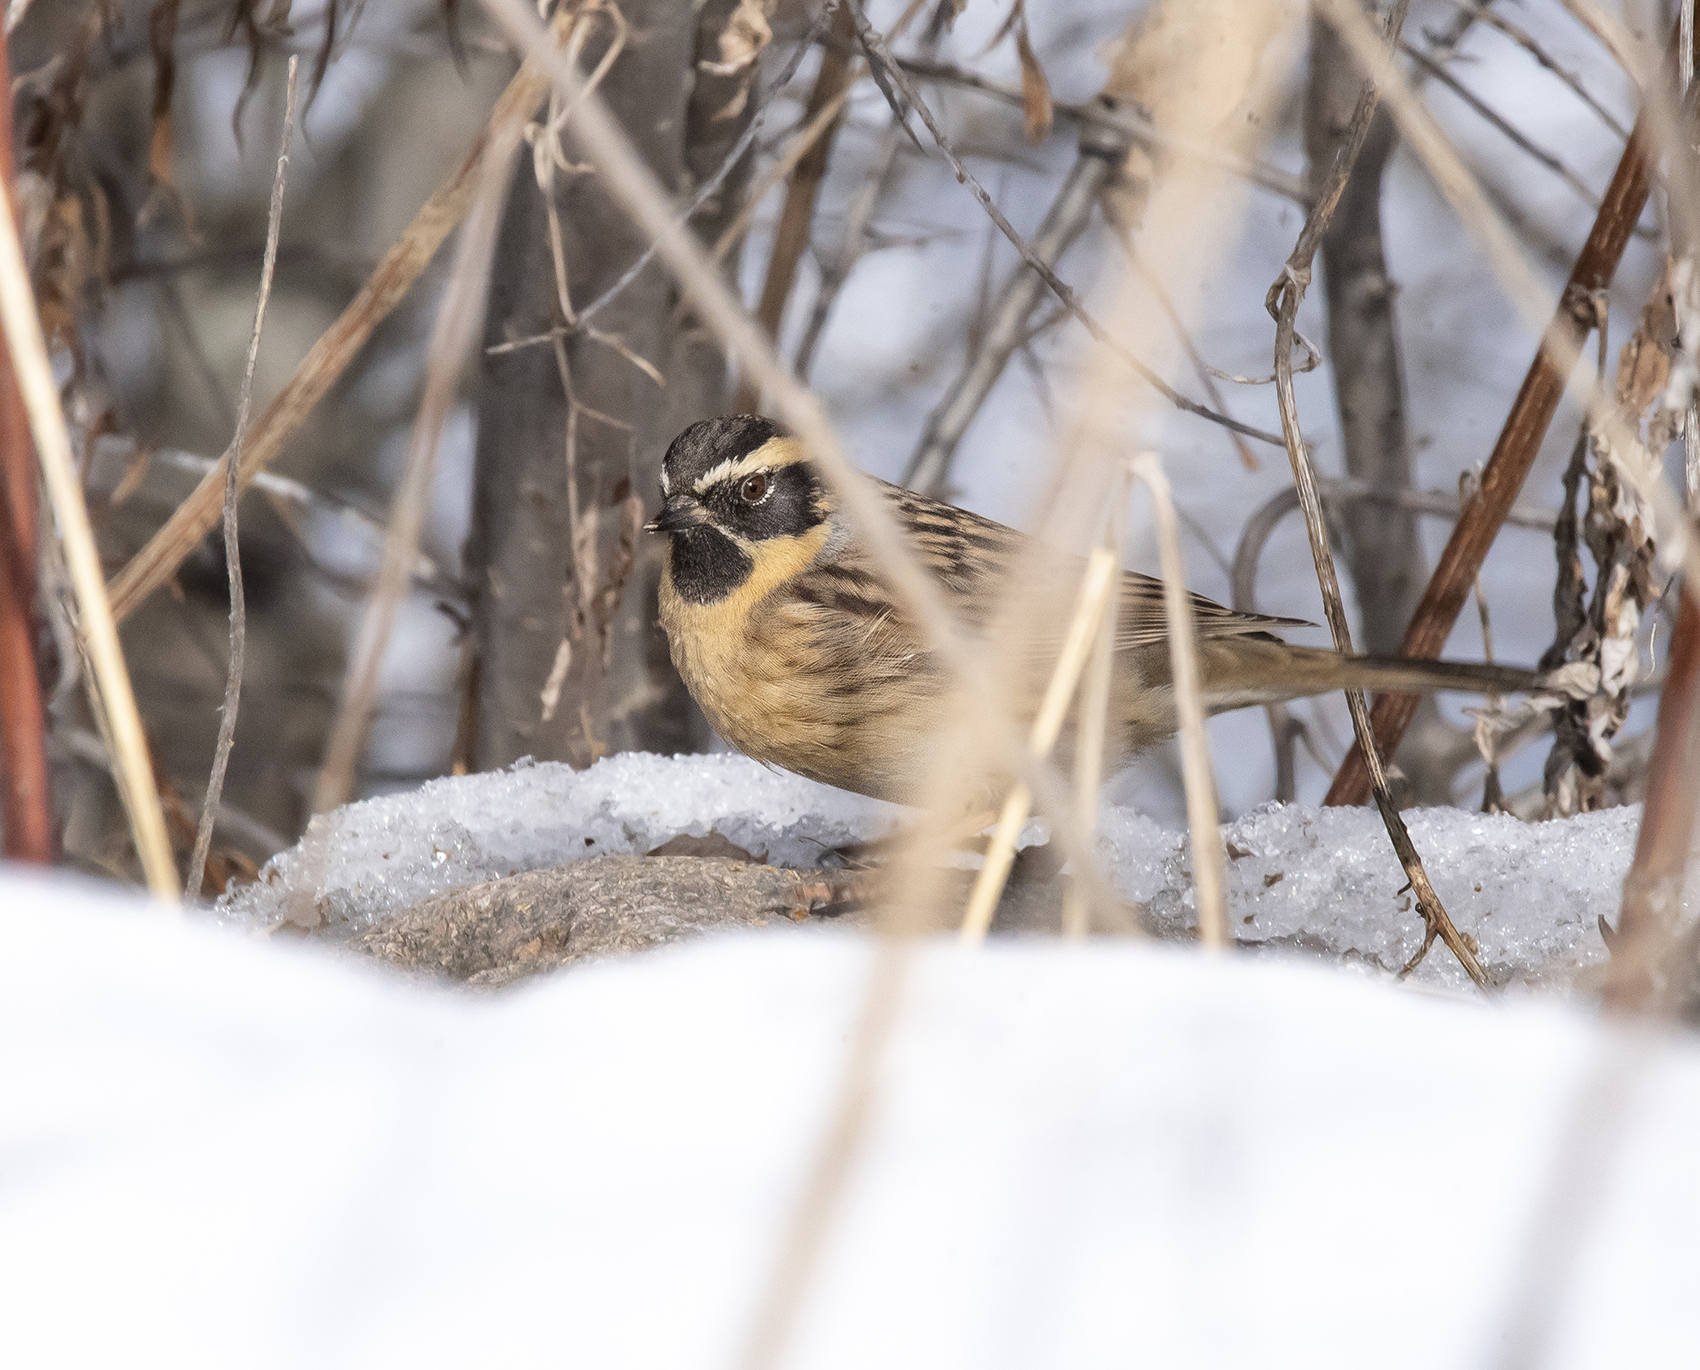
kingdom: Animalia
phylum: Chordata
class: Aves
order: Passeriformes
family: Prunellidae
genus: Prunella
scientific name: Prunella atrogularis
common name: Black-throated accentor
